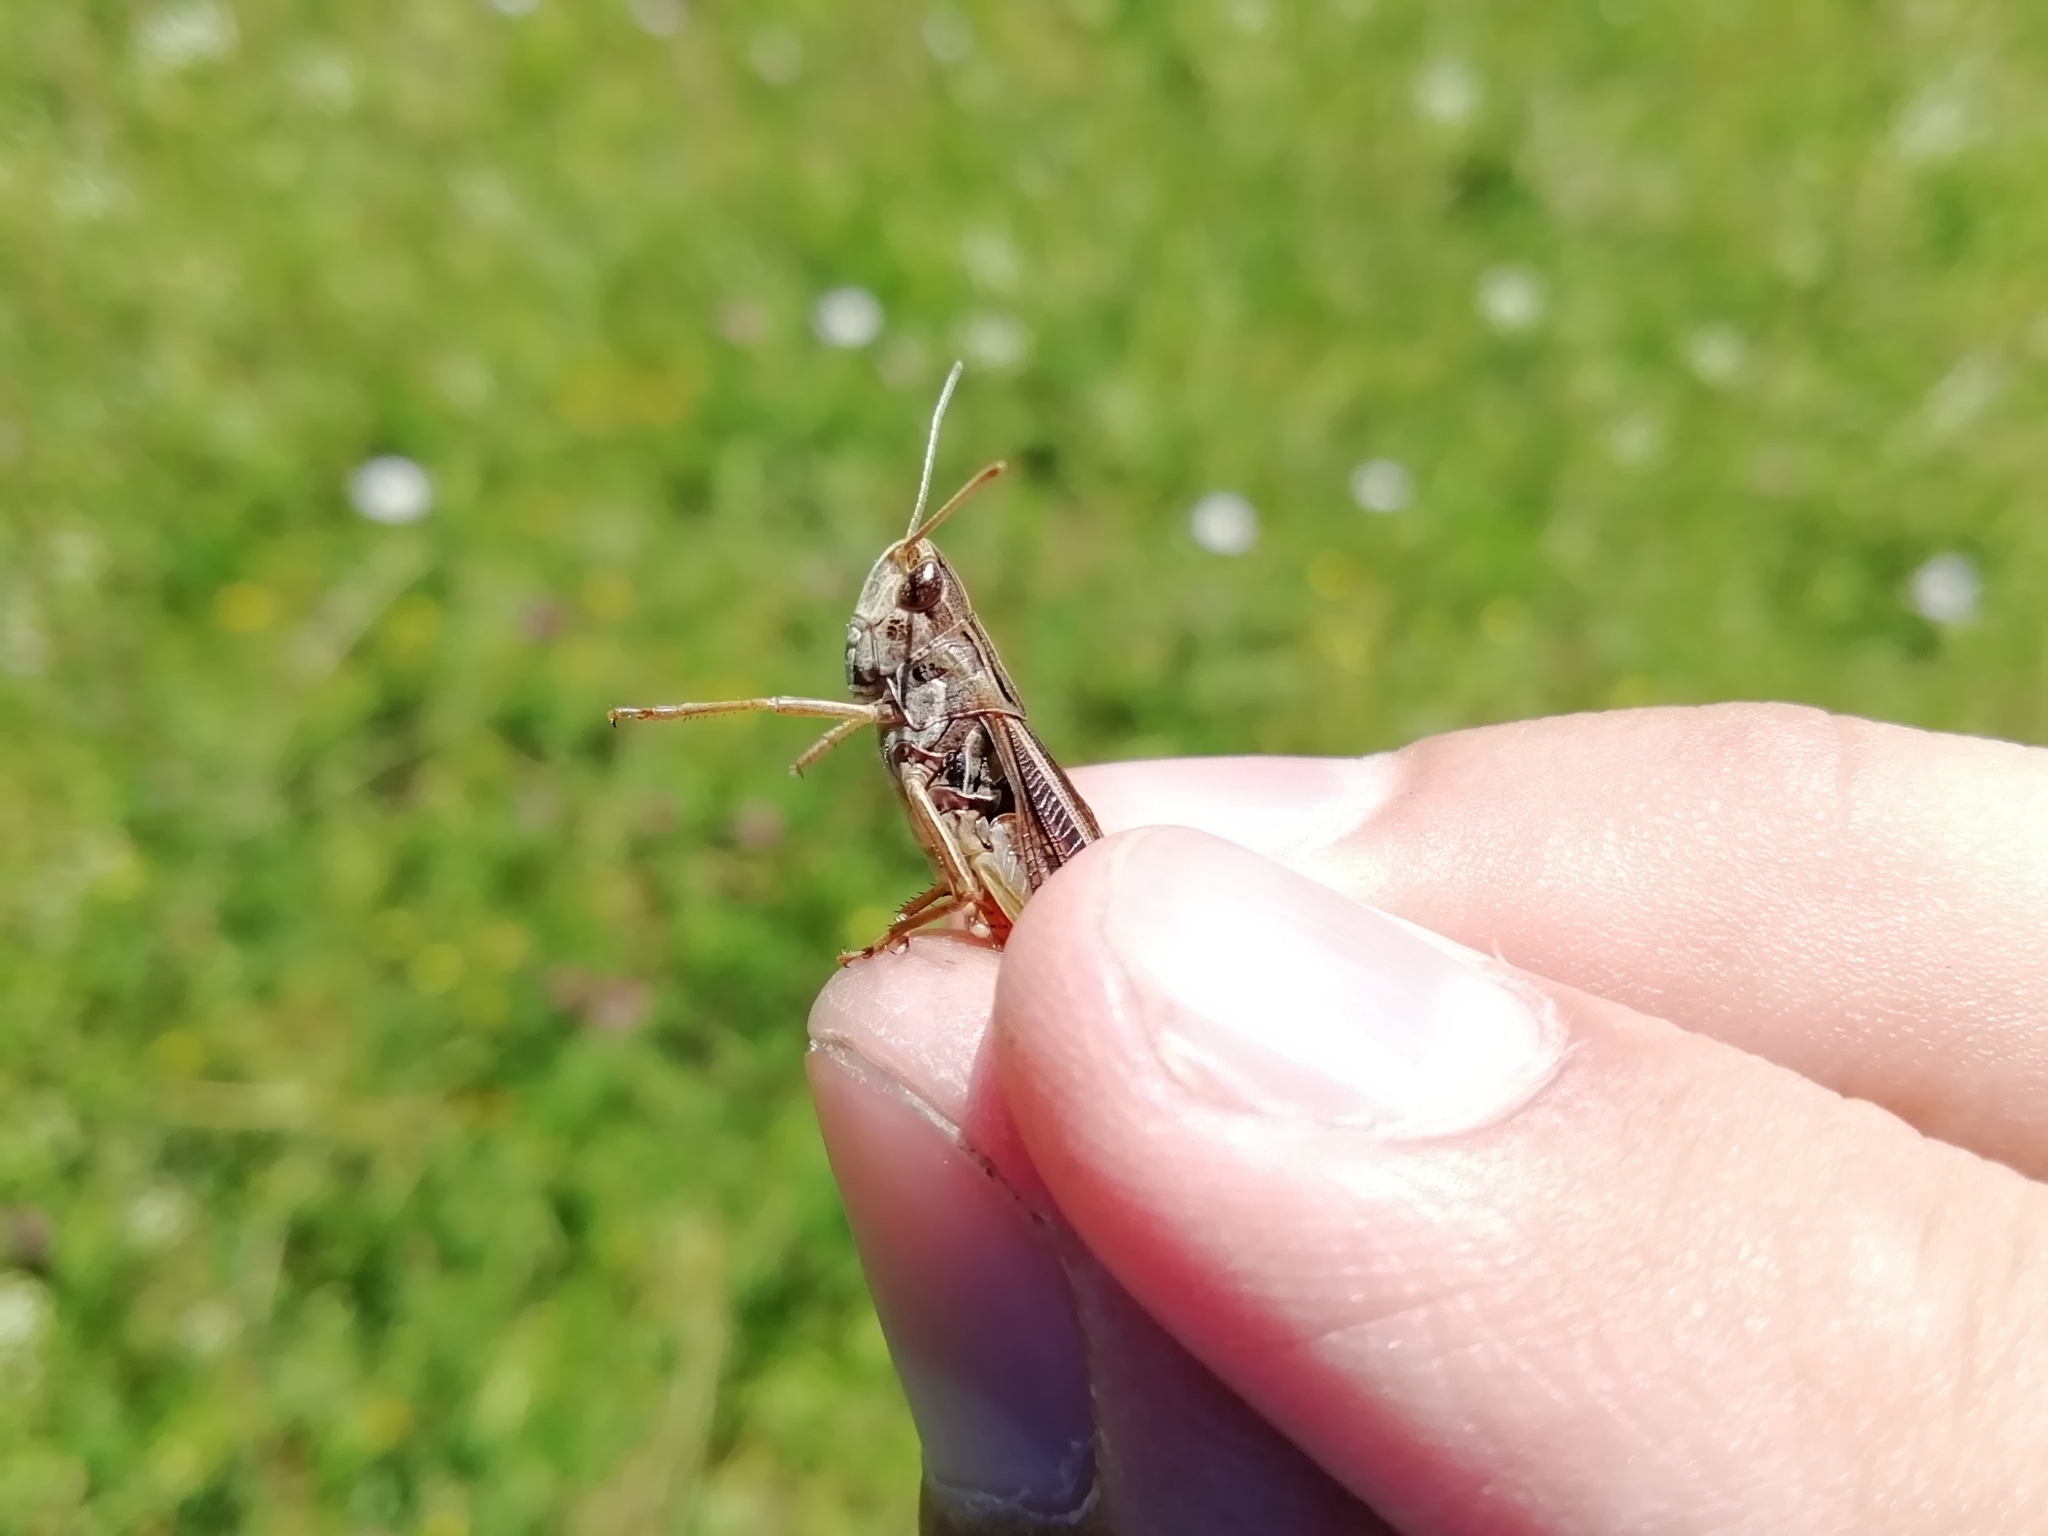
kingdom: Animalia
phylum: Arthropoda
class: Insecta
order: Orthoptera
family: Acrididae
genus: Stenobothrus
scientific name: Stenobothrus lineatus
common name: Stripe-winged grasshopper
